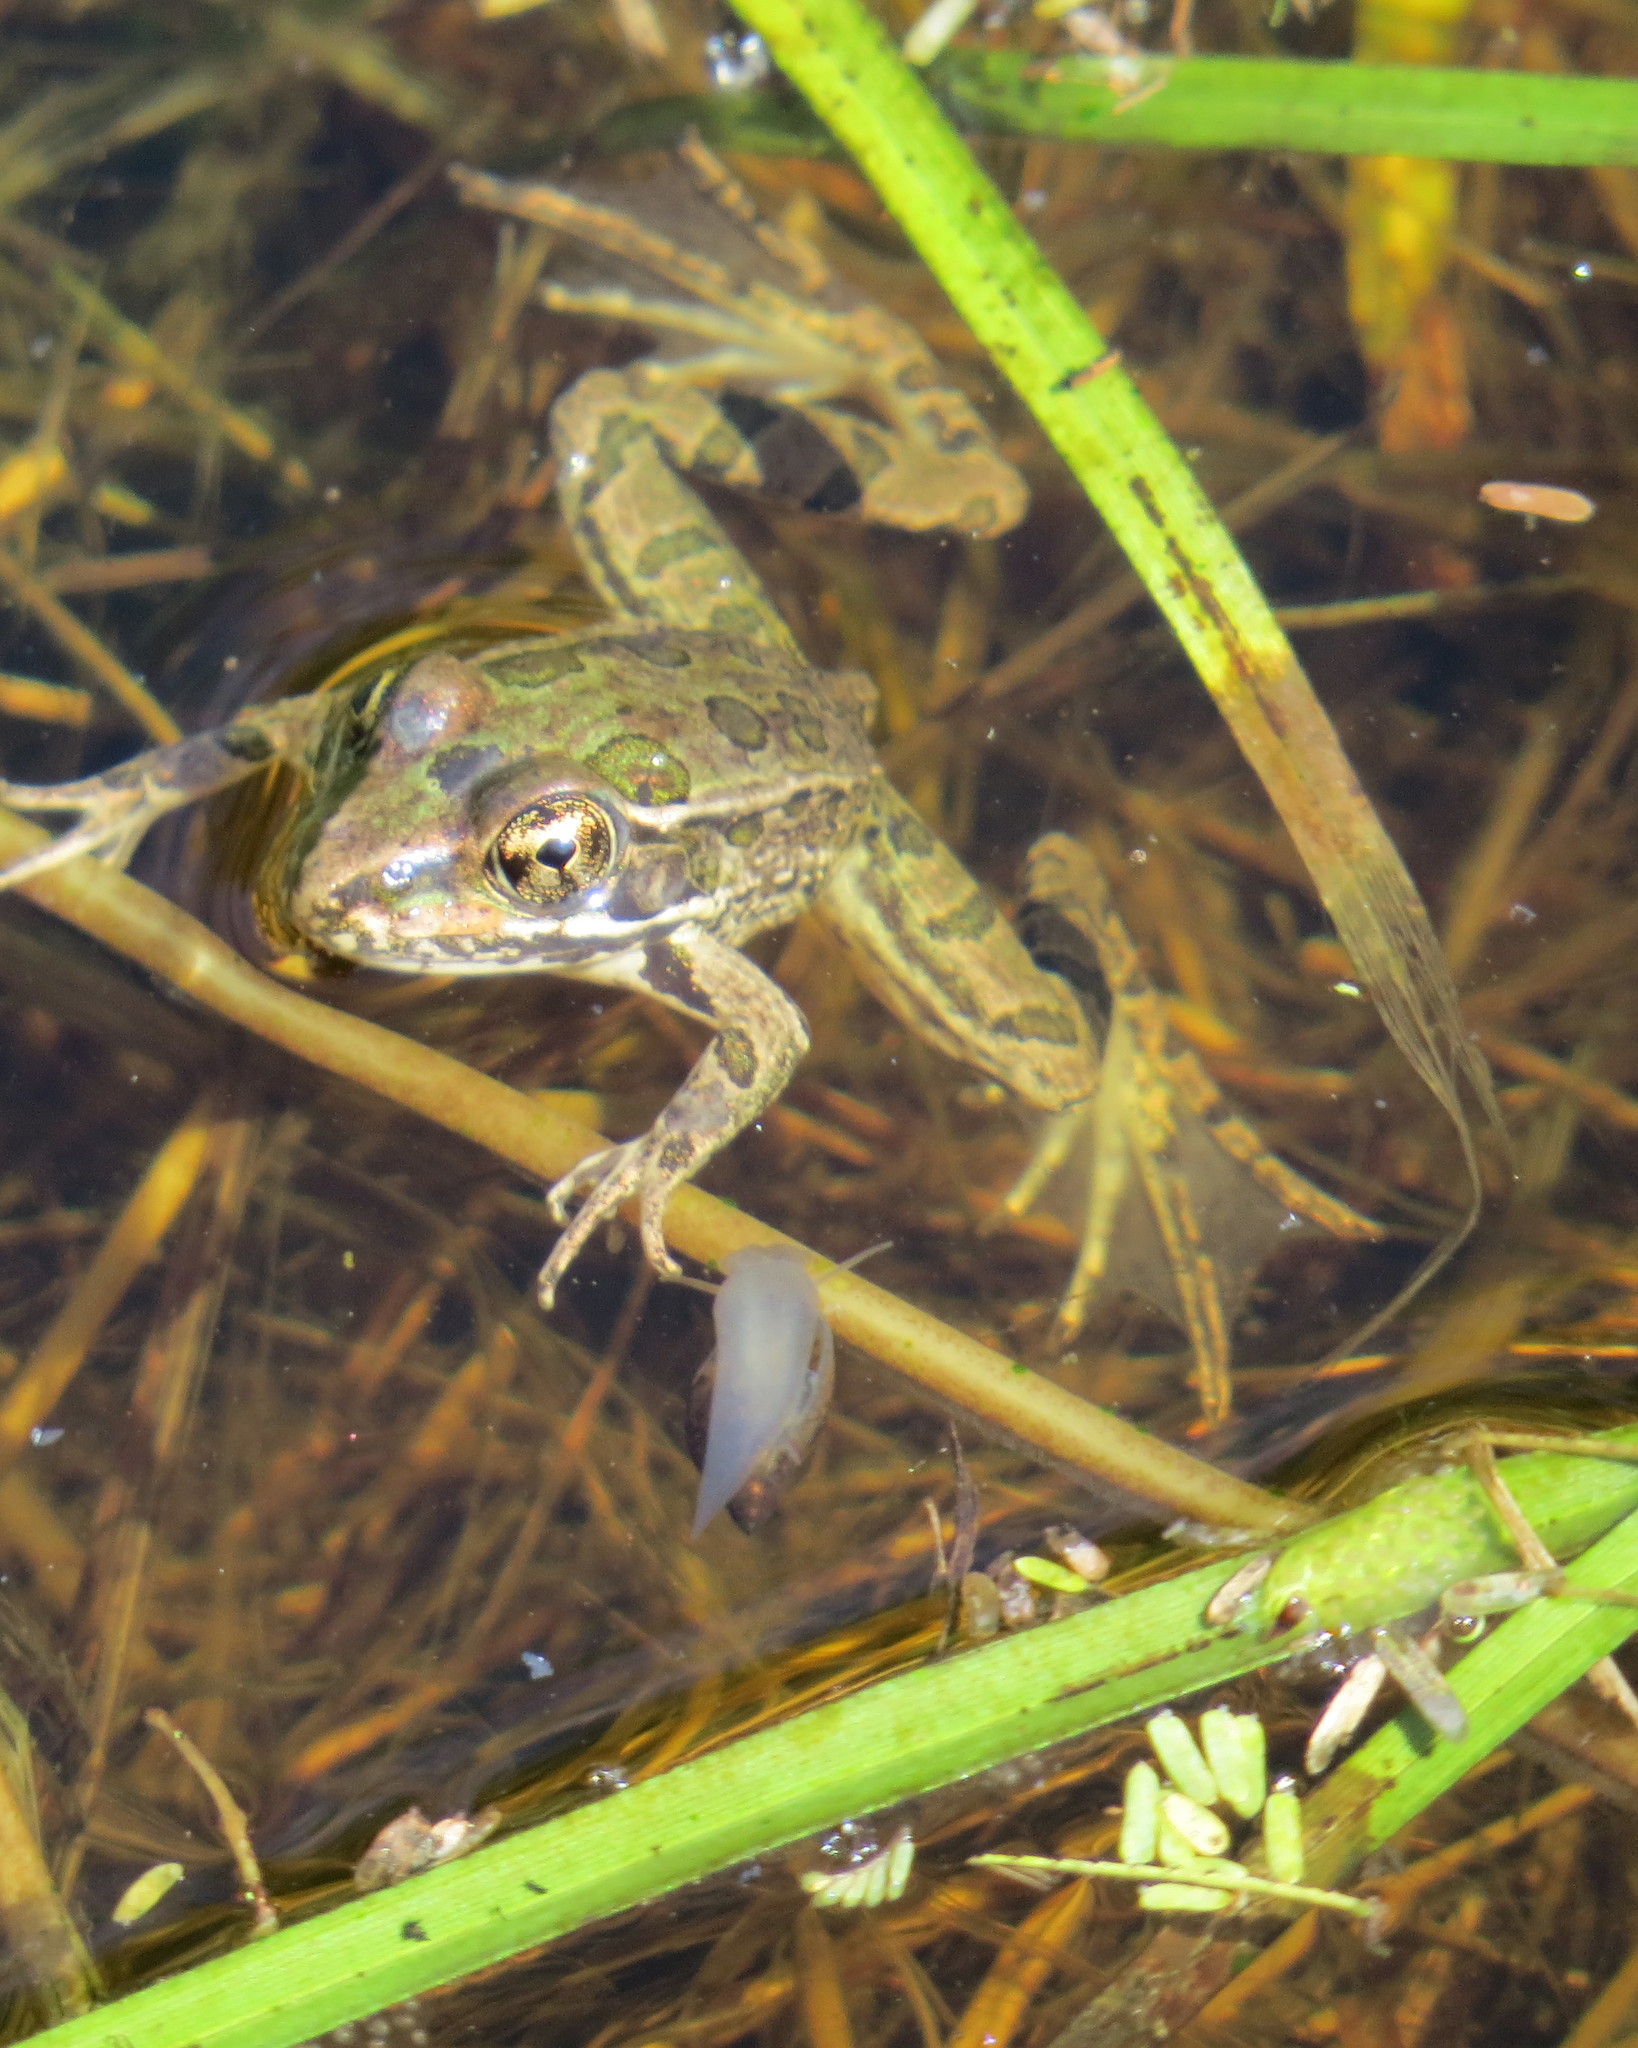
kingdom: Animalia
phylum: Chordata
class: Amphibia
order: Anura
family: Ranidae
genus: Lithobates
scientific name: Lithobates berlandieri
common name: Rio grande leopard frog
